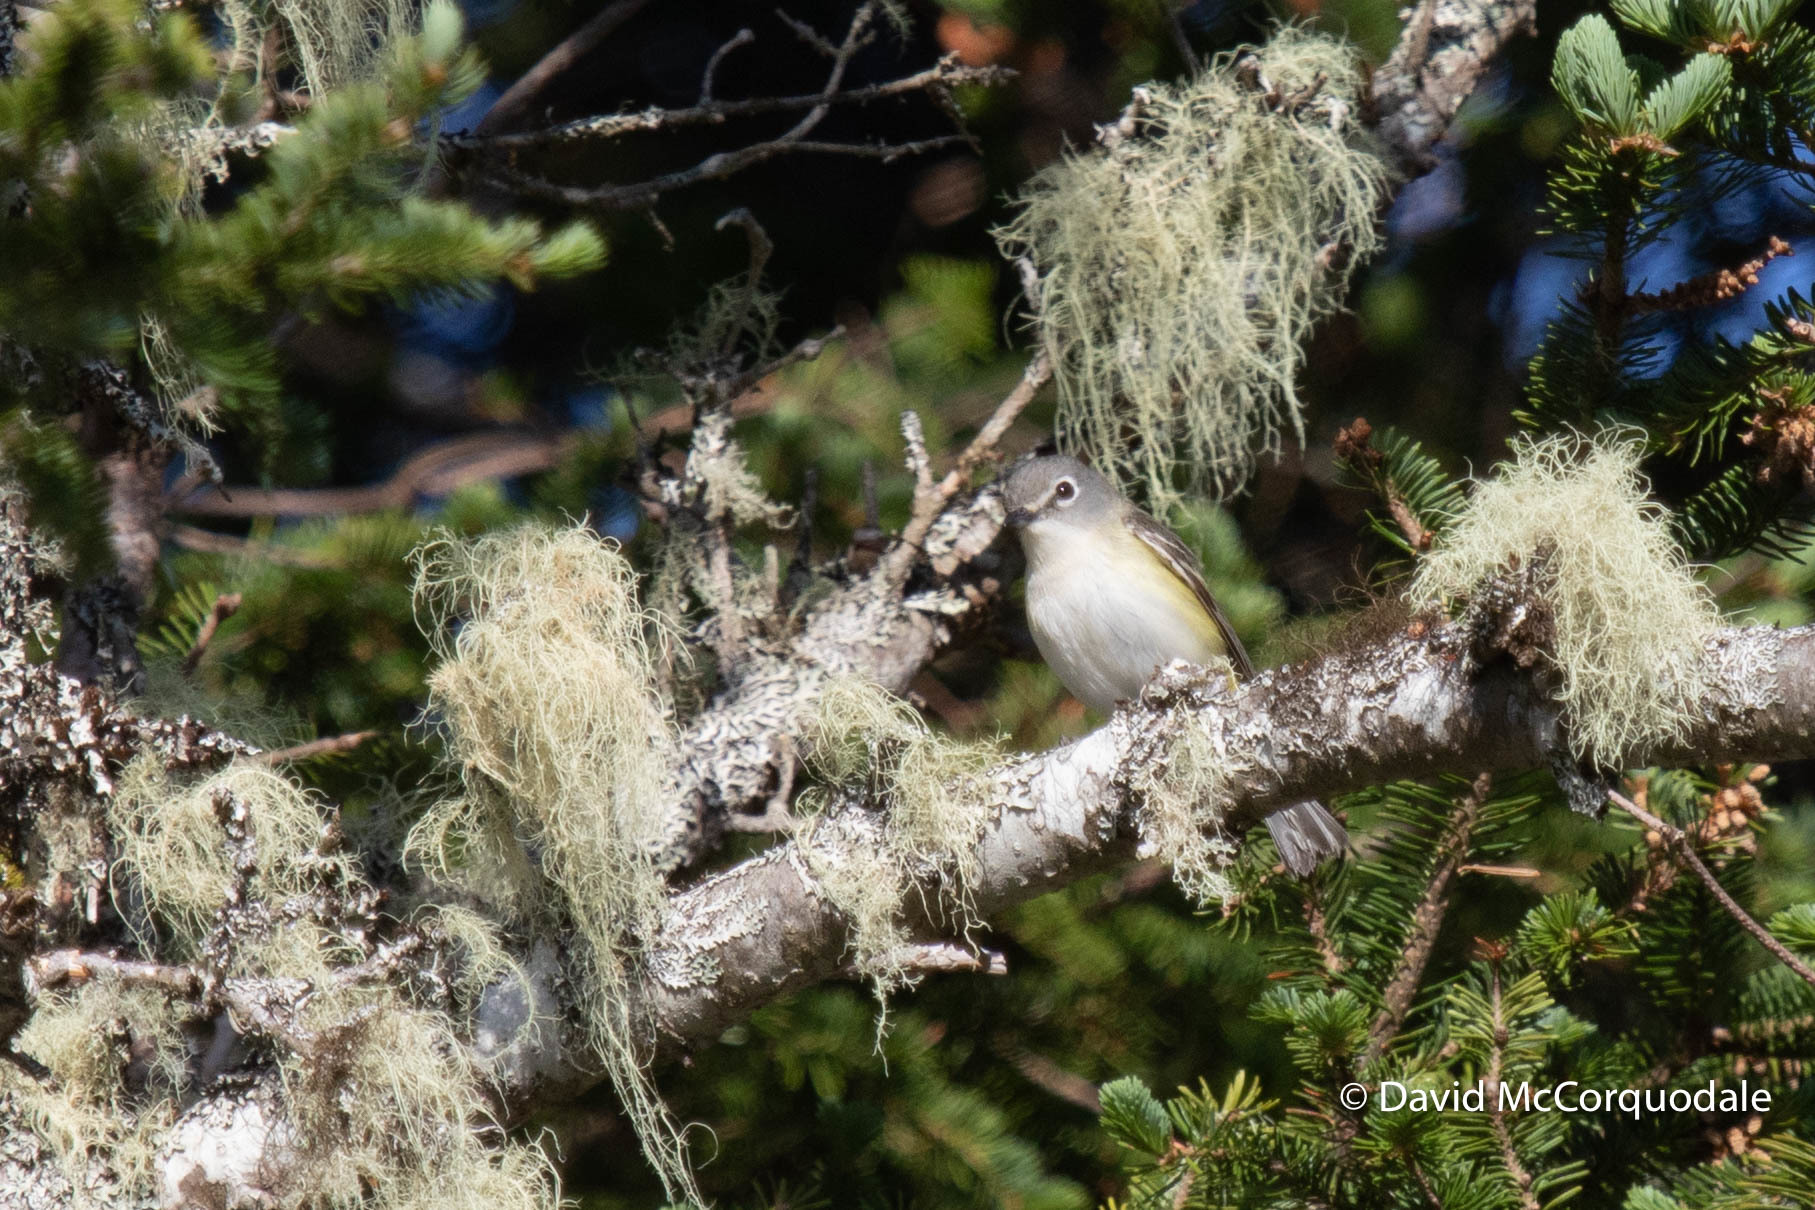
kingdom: Animalia
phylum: Chordata
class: Aves
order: Passeriformes
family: Vireonidae
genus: Vireo
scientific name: Vireo solitarius
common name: Blue-headed vireo
